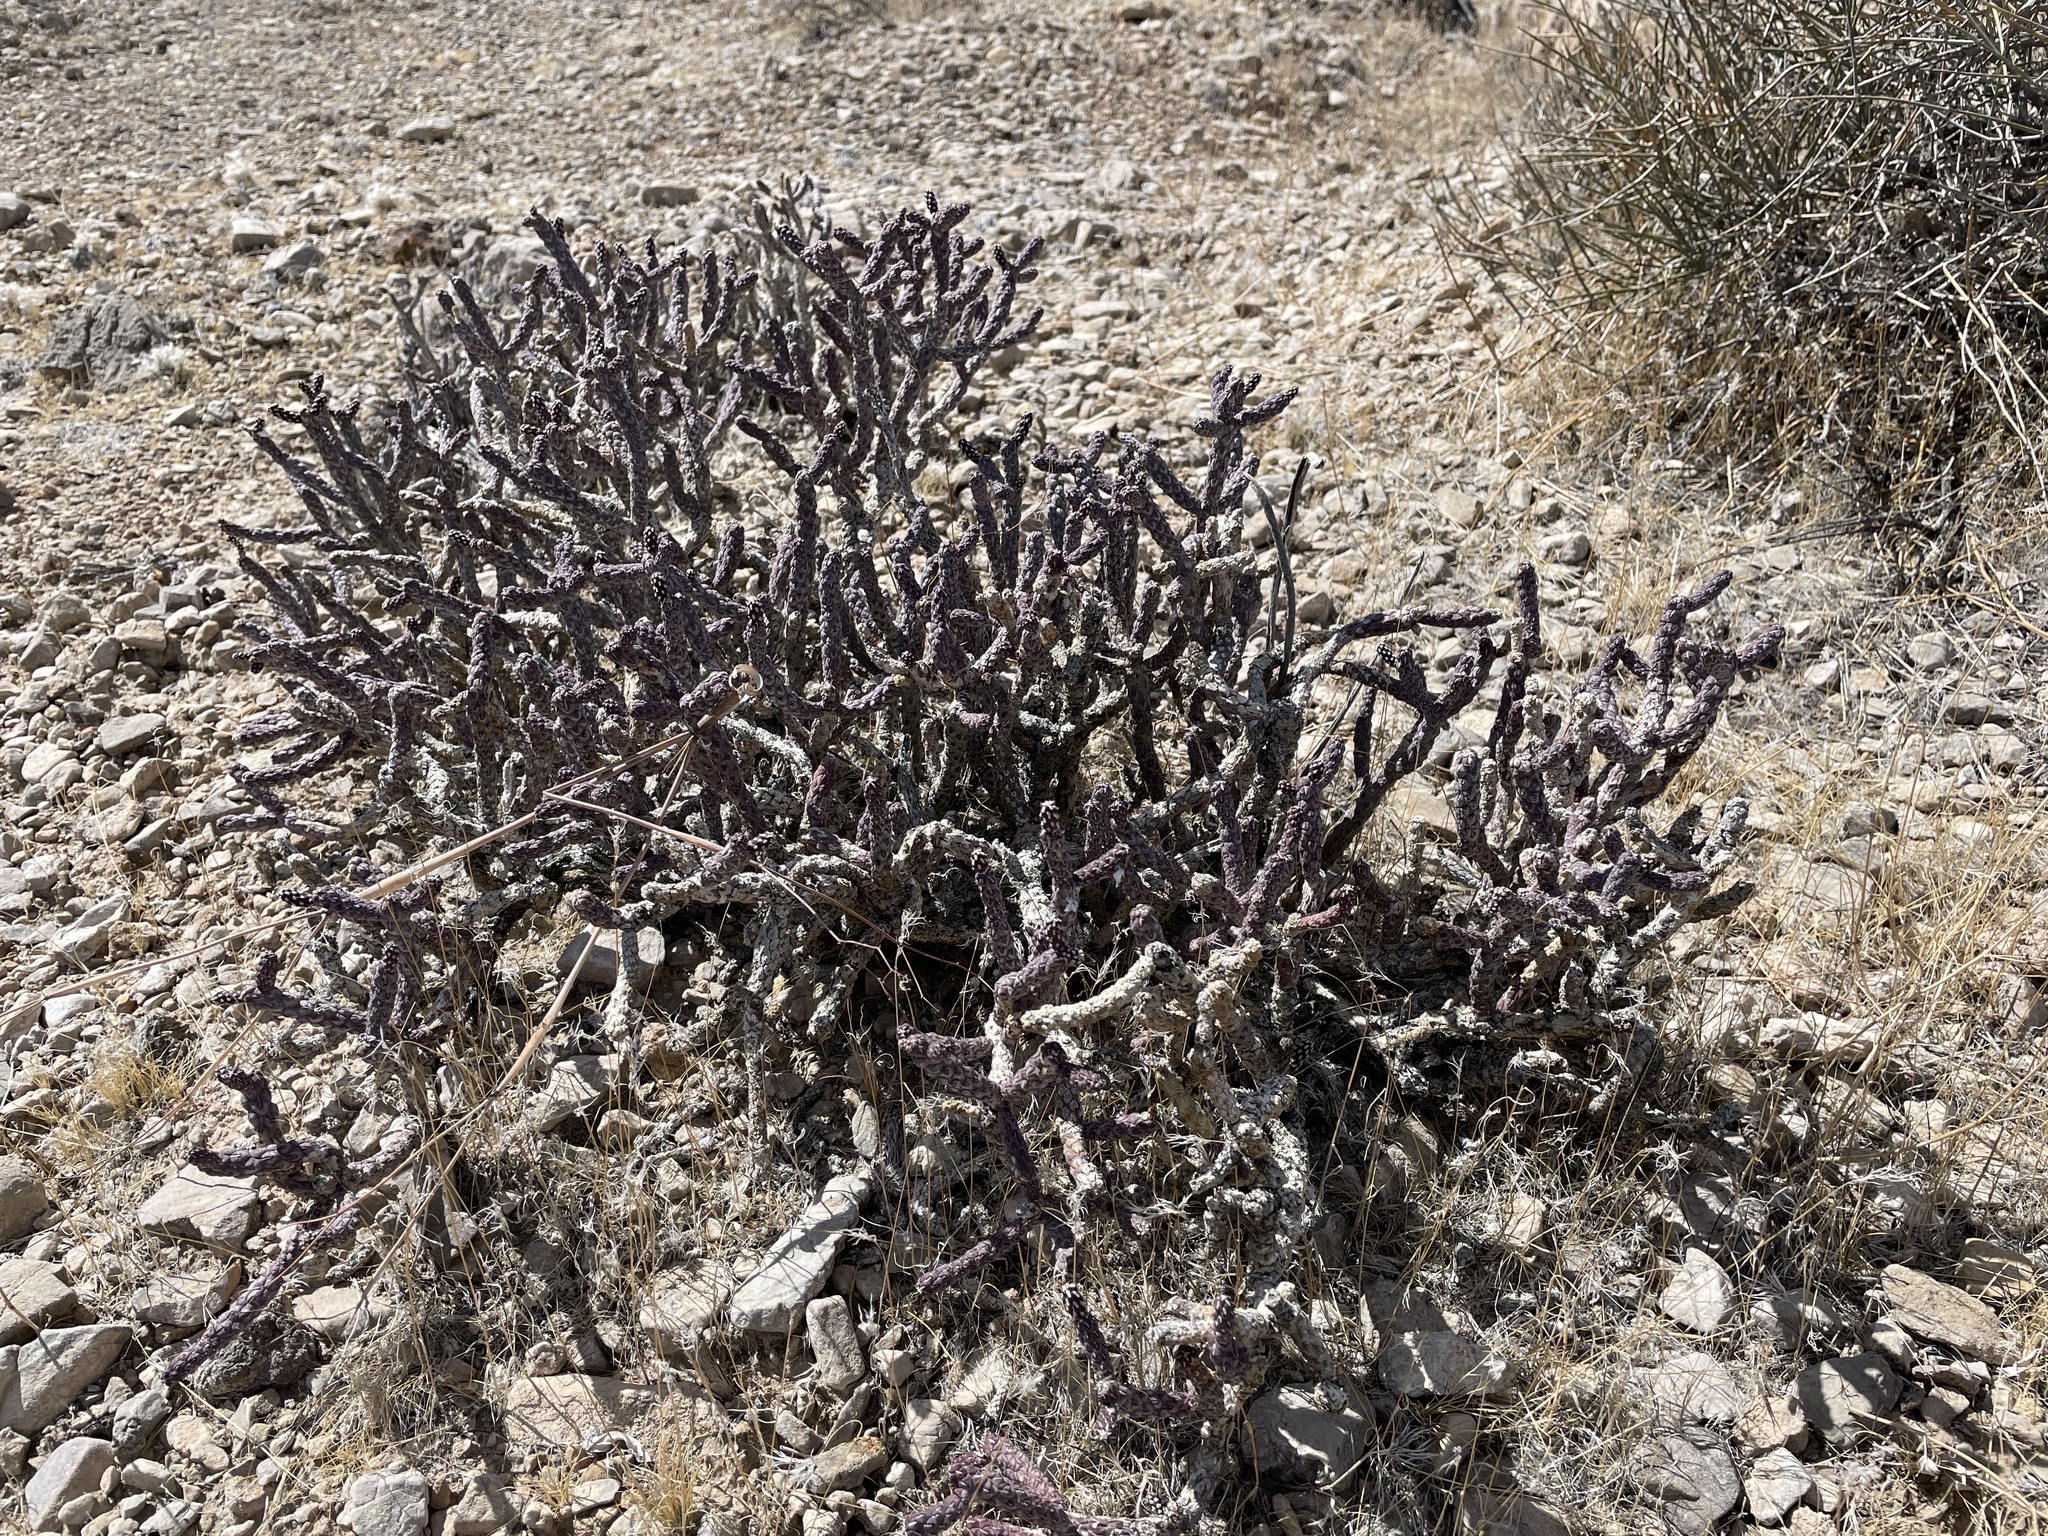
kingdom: Plantae
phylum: Tracheophyta
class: Magnoliopsida
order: Caryophyllales
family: Cactaceae
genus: Cylindropuntia
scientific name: Cylindropuntia ramosissima
